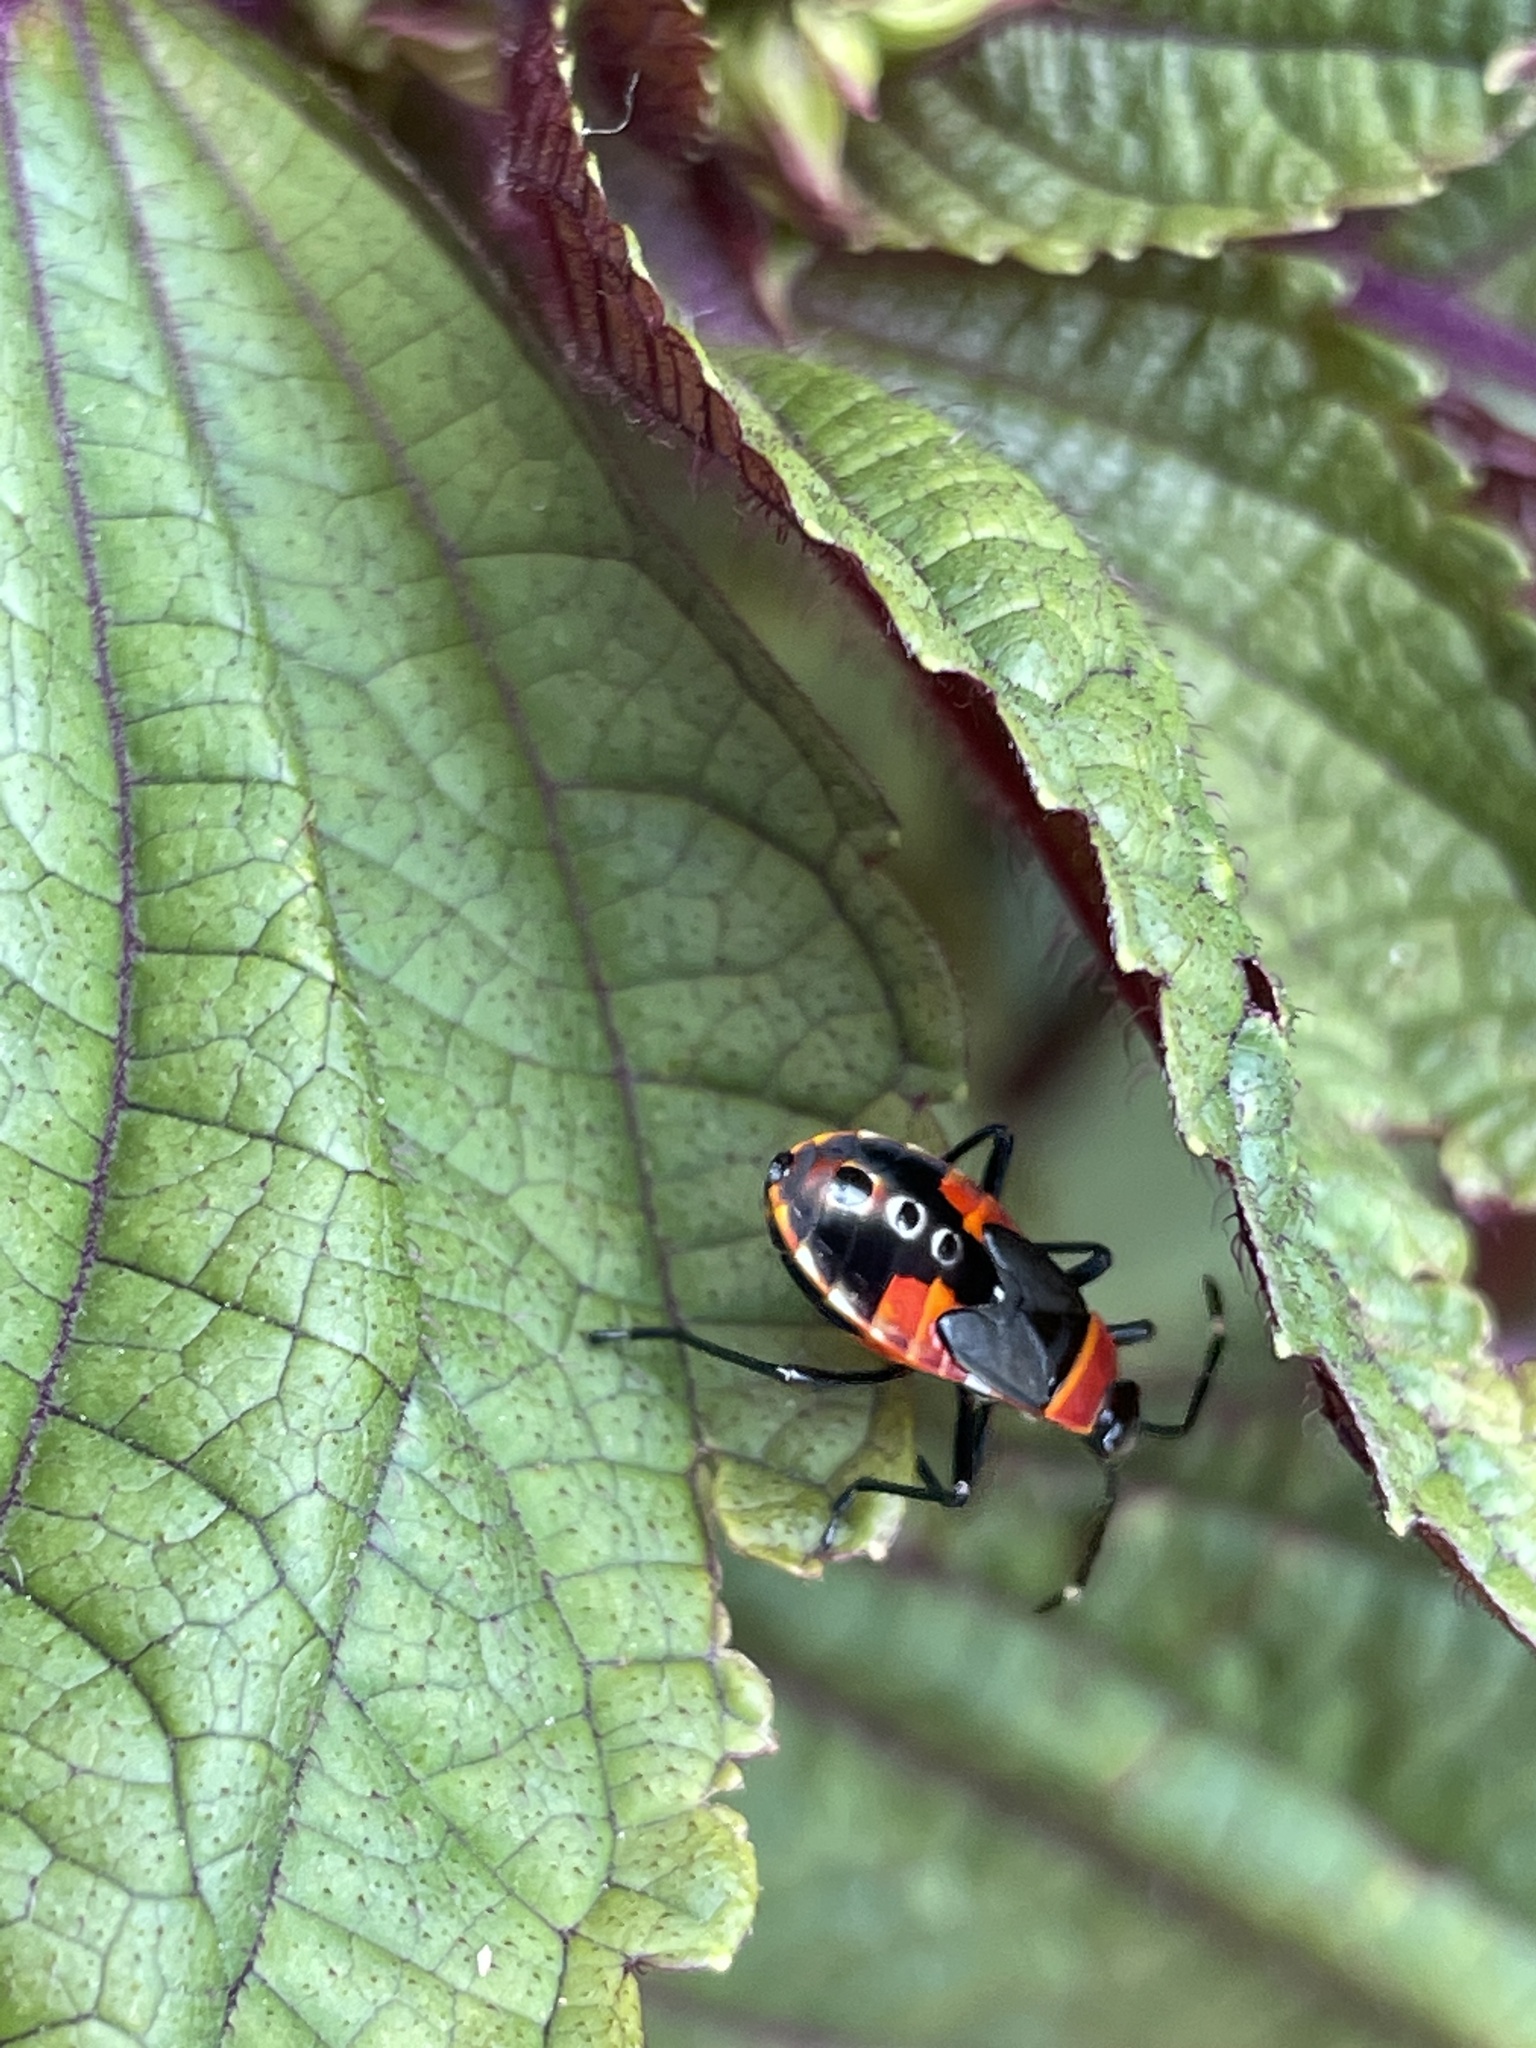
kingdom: Animalia
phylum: Arthropoda
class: Insecta
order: Hemiptera
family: Pyrrhocoridae
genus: Dindymus
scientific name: Dindymus
